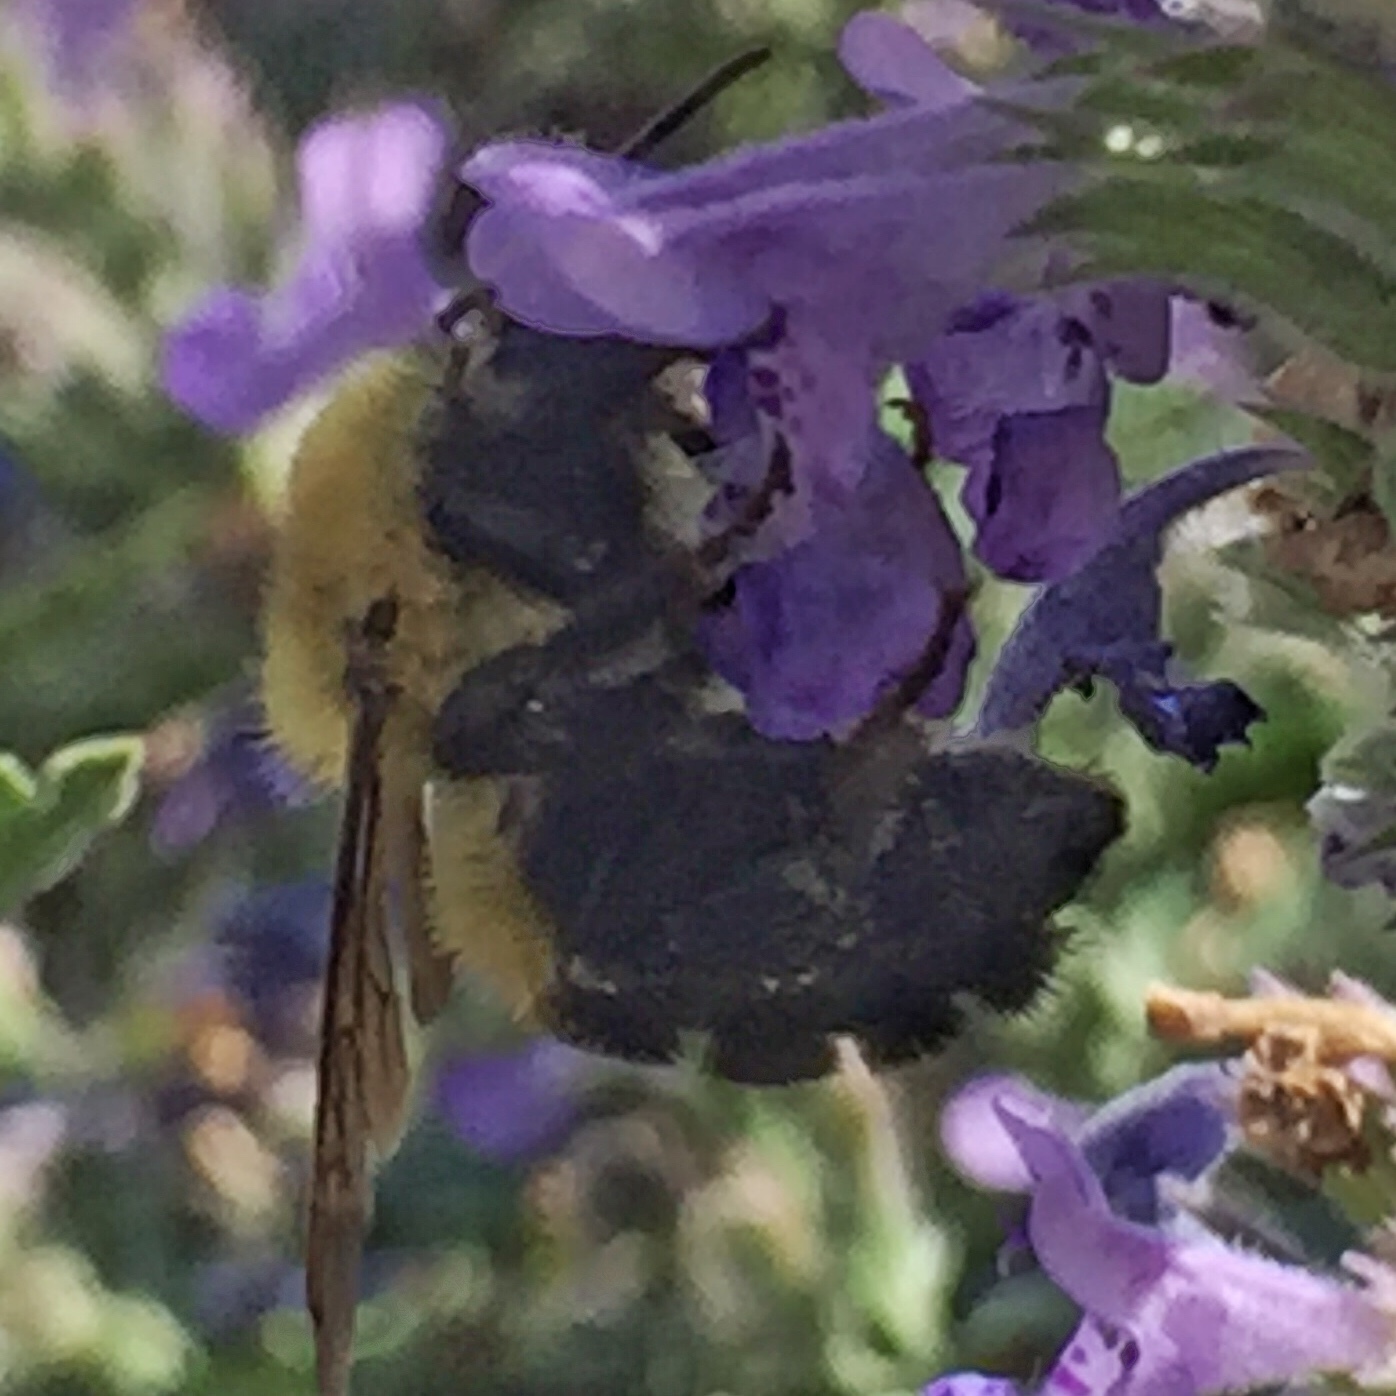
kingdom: Animalia
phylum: Arthropoda
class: Insecta
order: Hymenoptera
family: Apidae
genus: Bombus
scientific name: Bombus bimaculatus
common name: Two-spotted bumble bee
